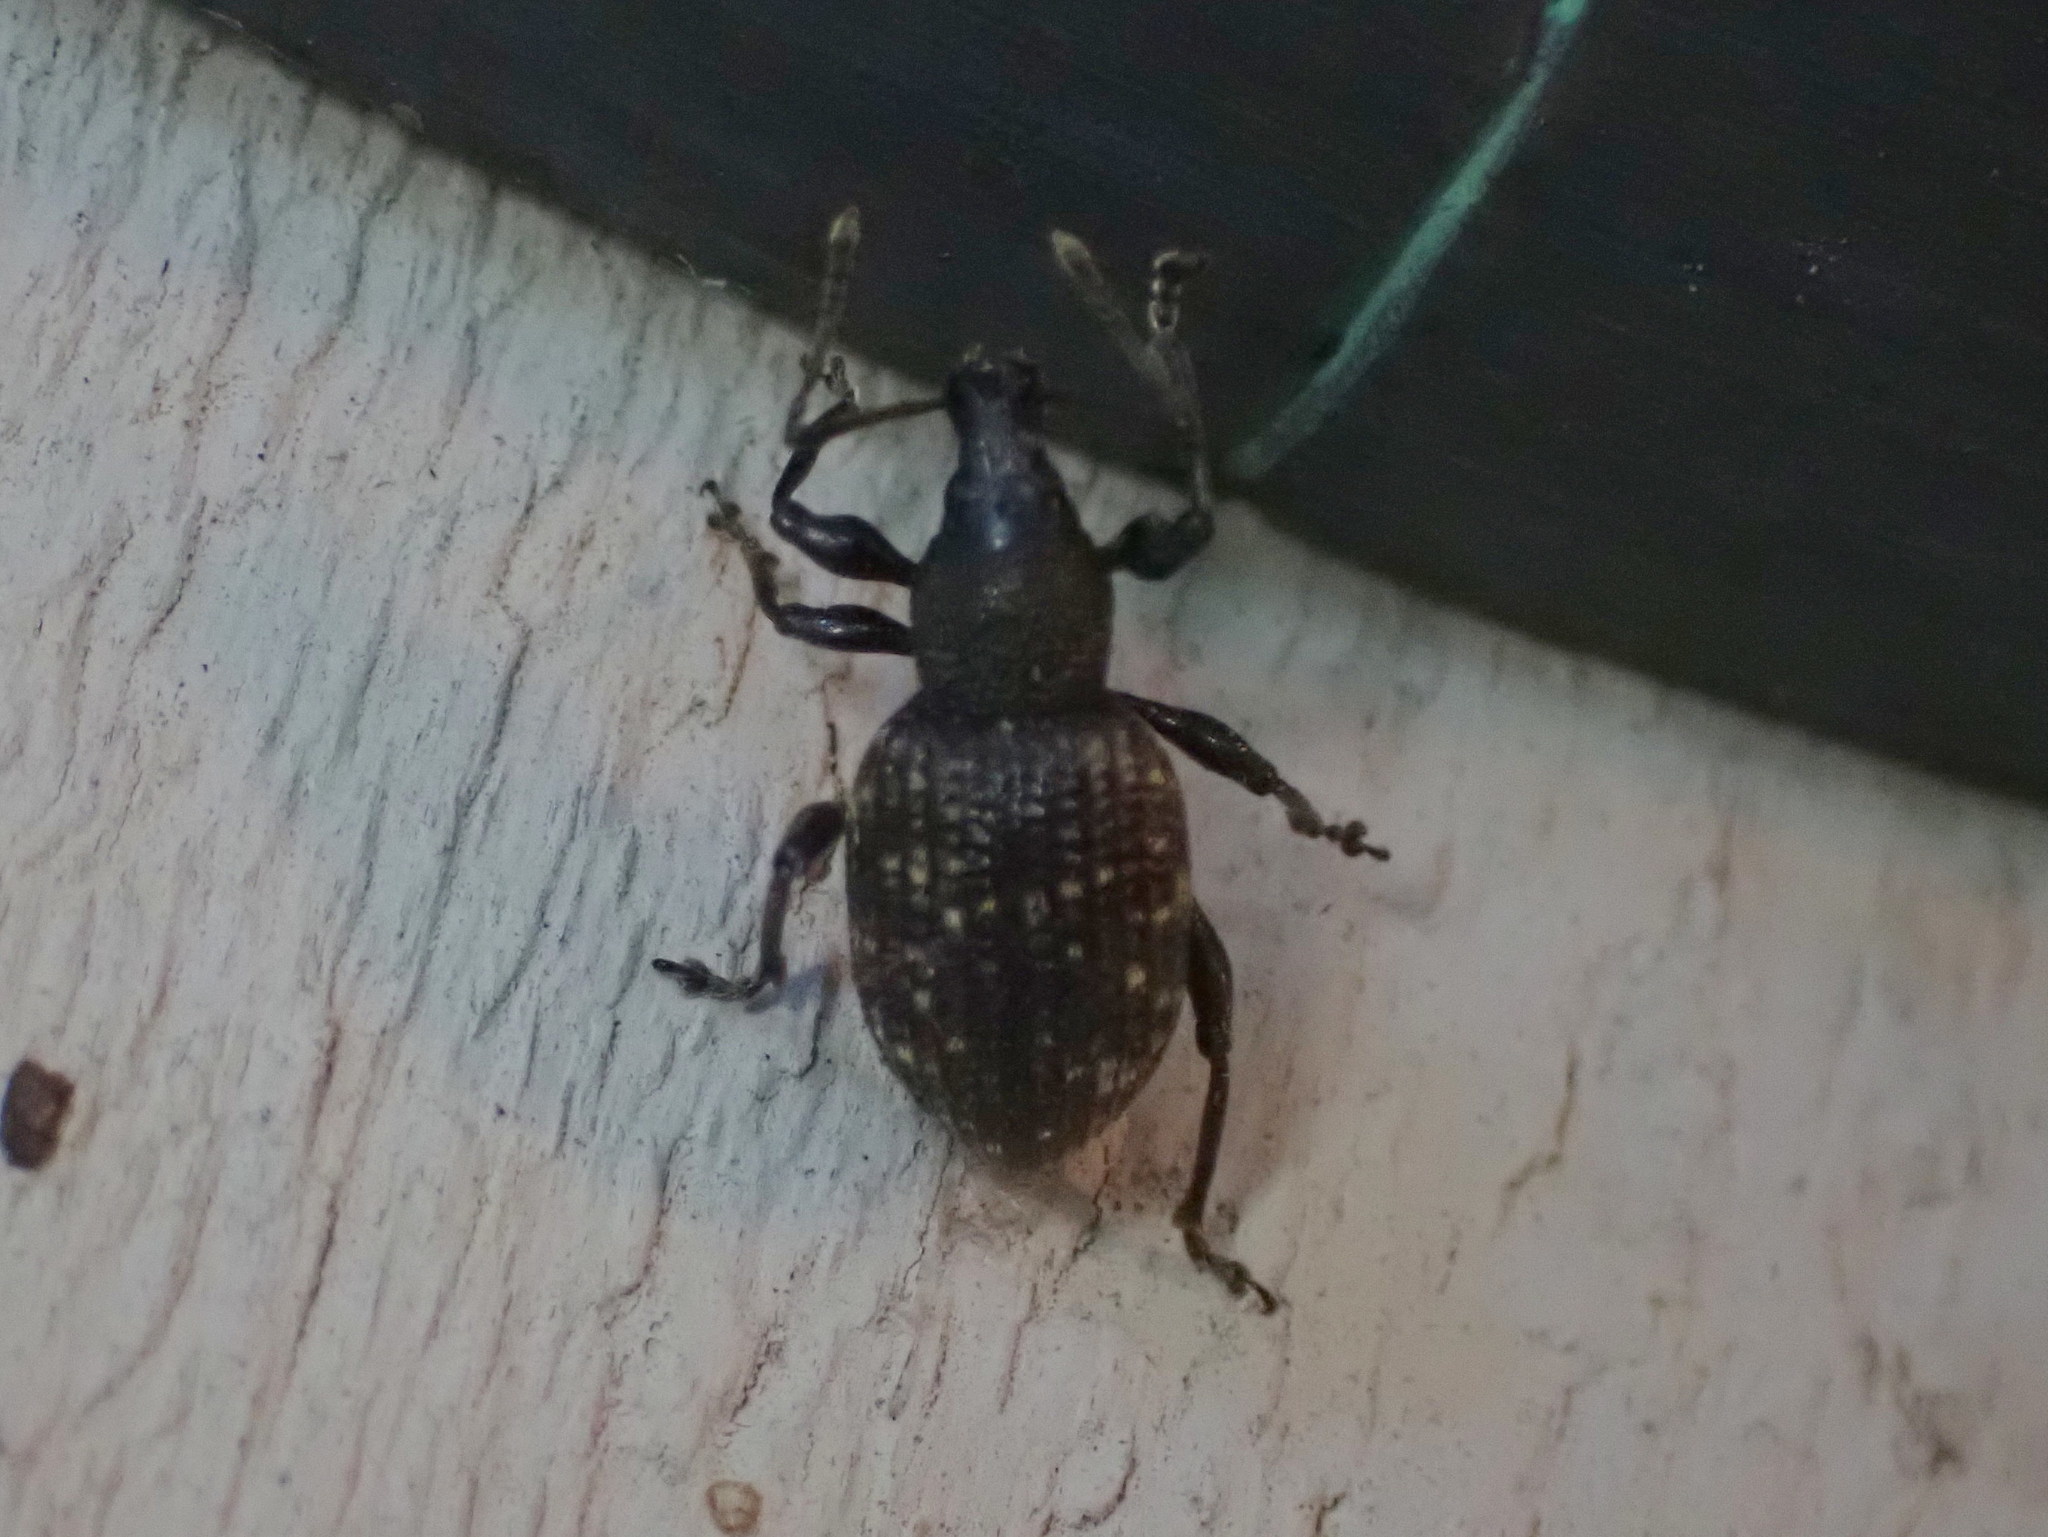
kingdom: Animalia
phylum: Arthropoda
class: Insecta
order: Coleoptera
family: Curculionidae
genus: Otiorhynchus
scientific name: Otiorhynchus sulcatus
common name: Black vine weevil
